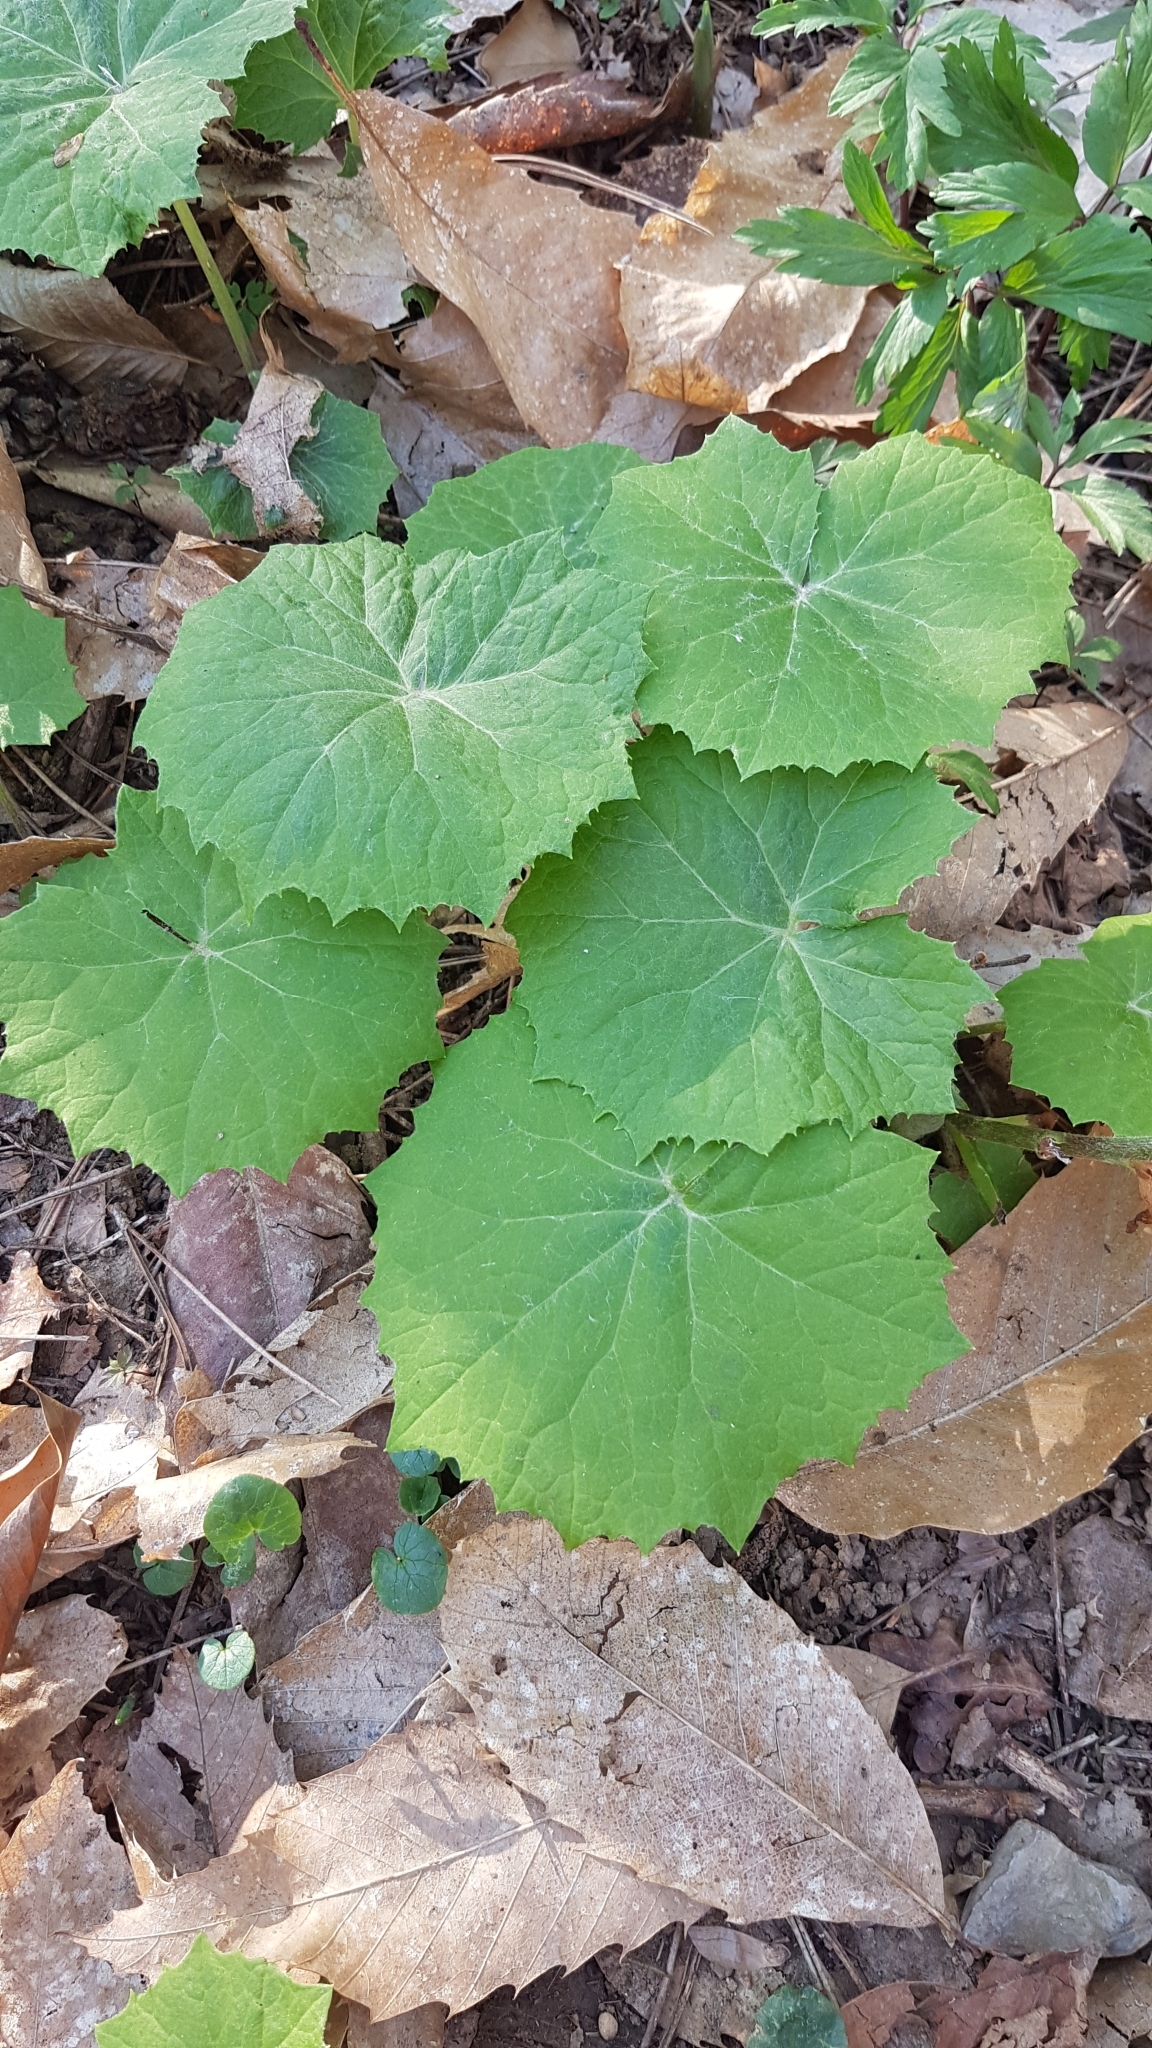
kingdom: Plantae
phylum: Tracheophyta
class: Magnoliopsida
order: Asterales
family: Asteraceae
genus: Petasites
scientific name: Petasites albus
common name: White butterbur
